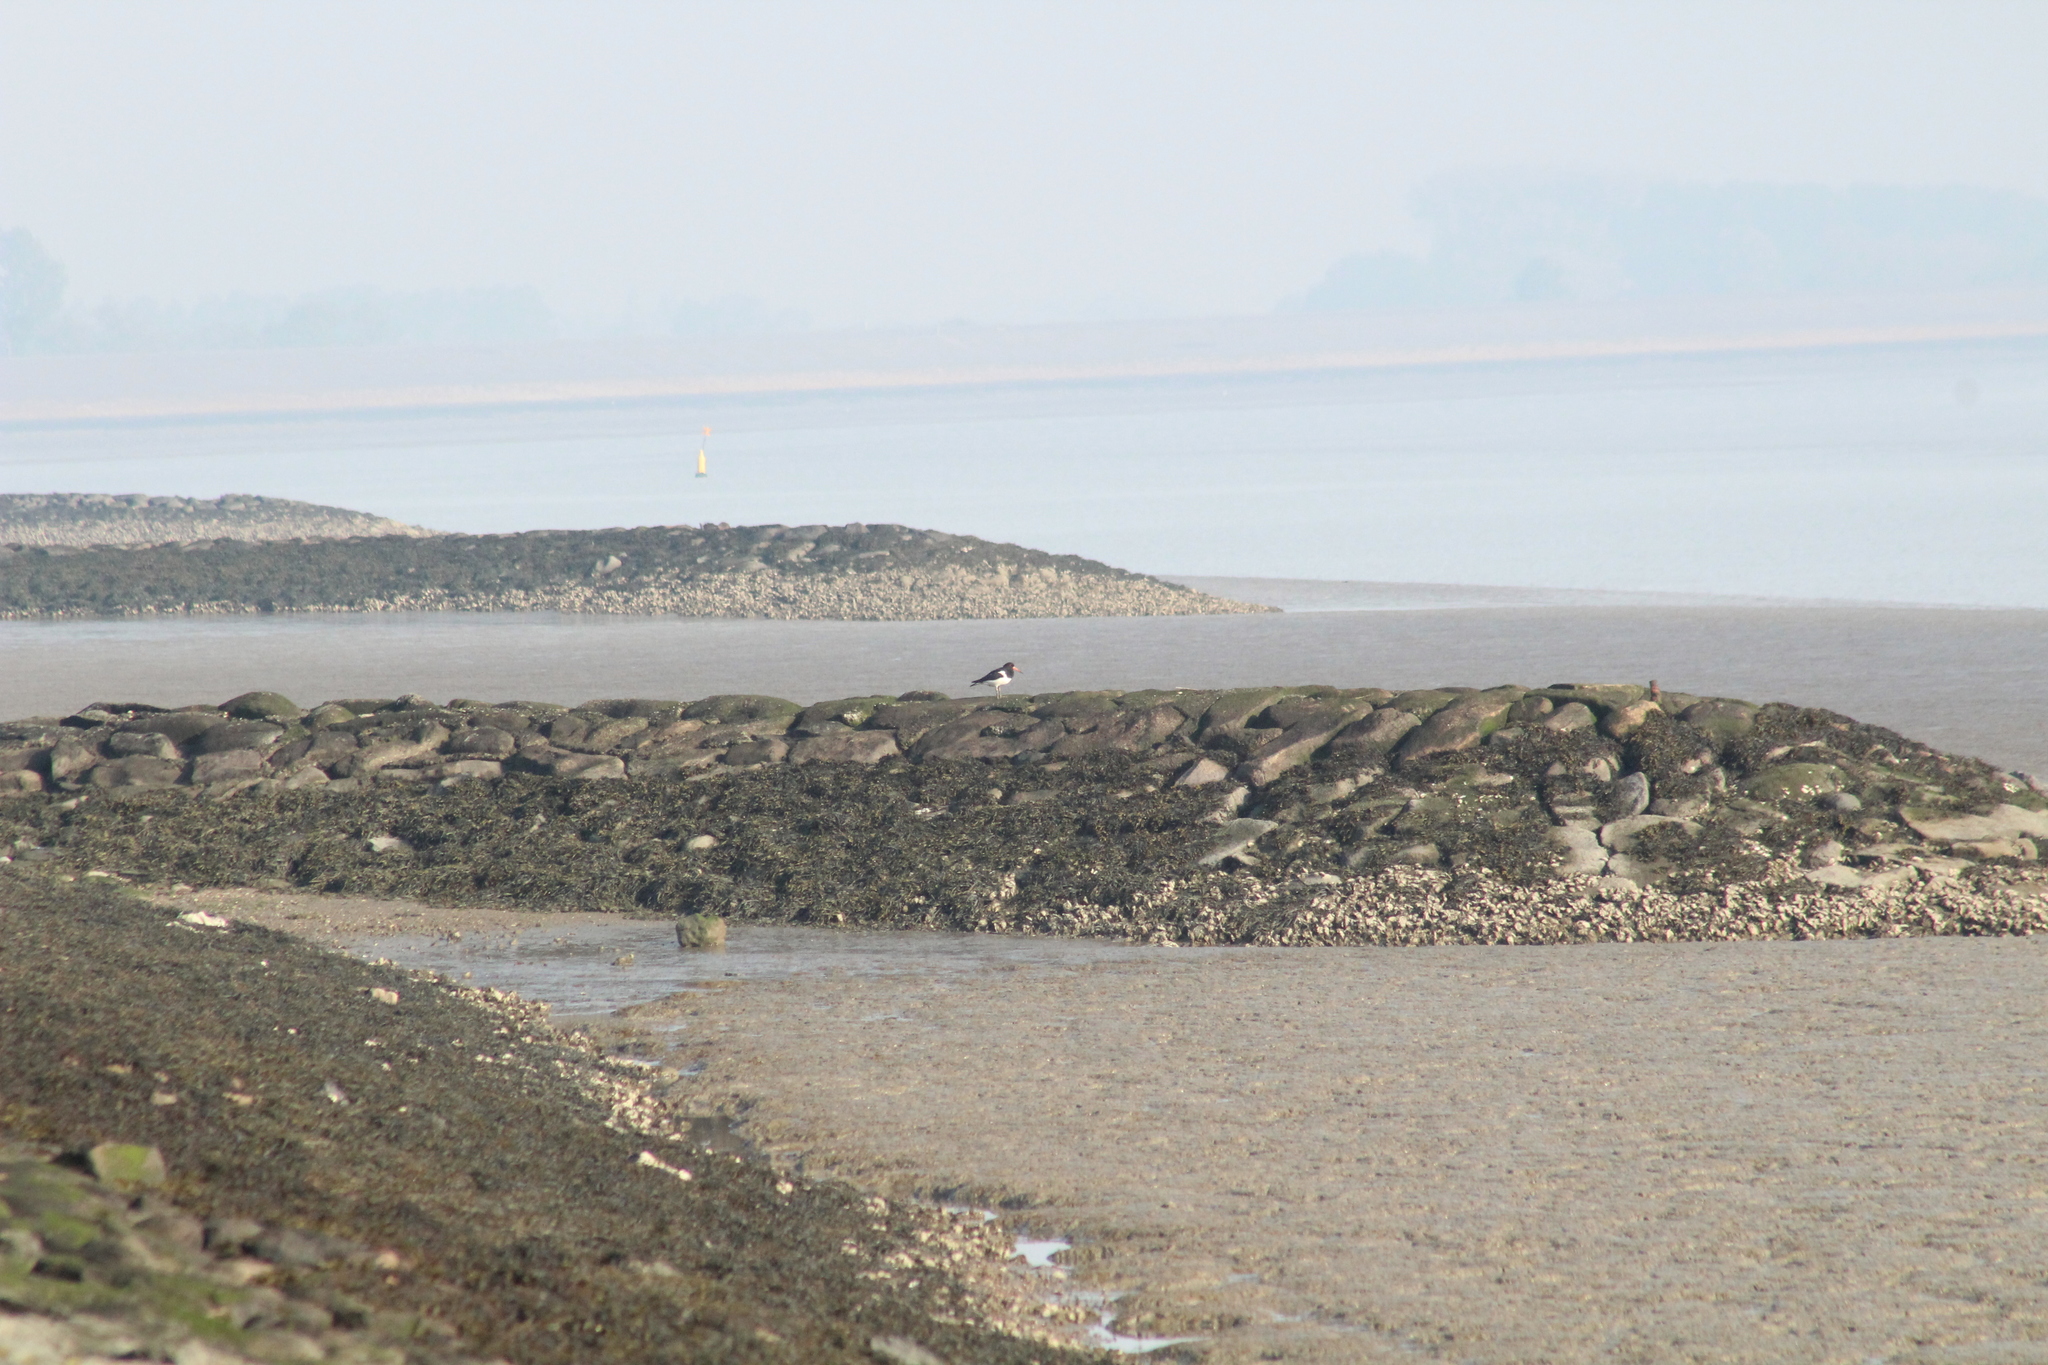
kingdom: Animalia
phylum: Chordata
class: Aves
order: Charadriiformes
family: Haematopodidae
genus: Haematopus
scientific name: Haematopus ostralegus
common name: Eurasian oystercatcher
